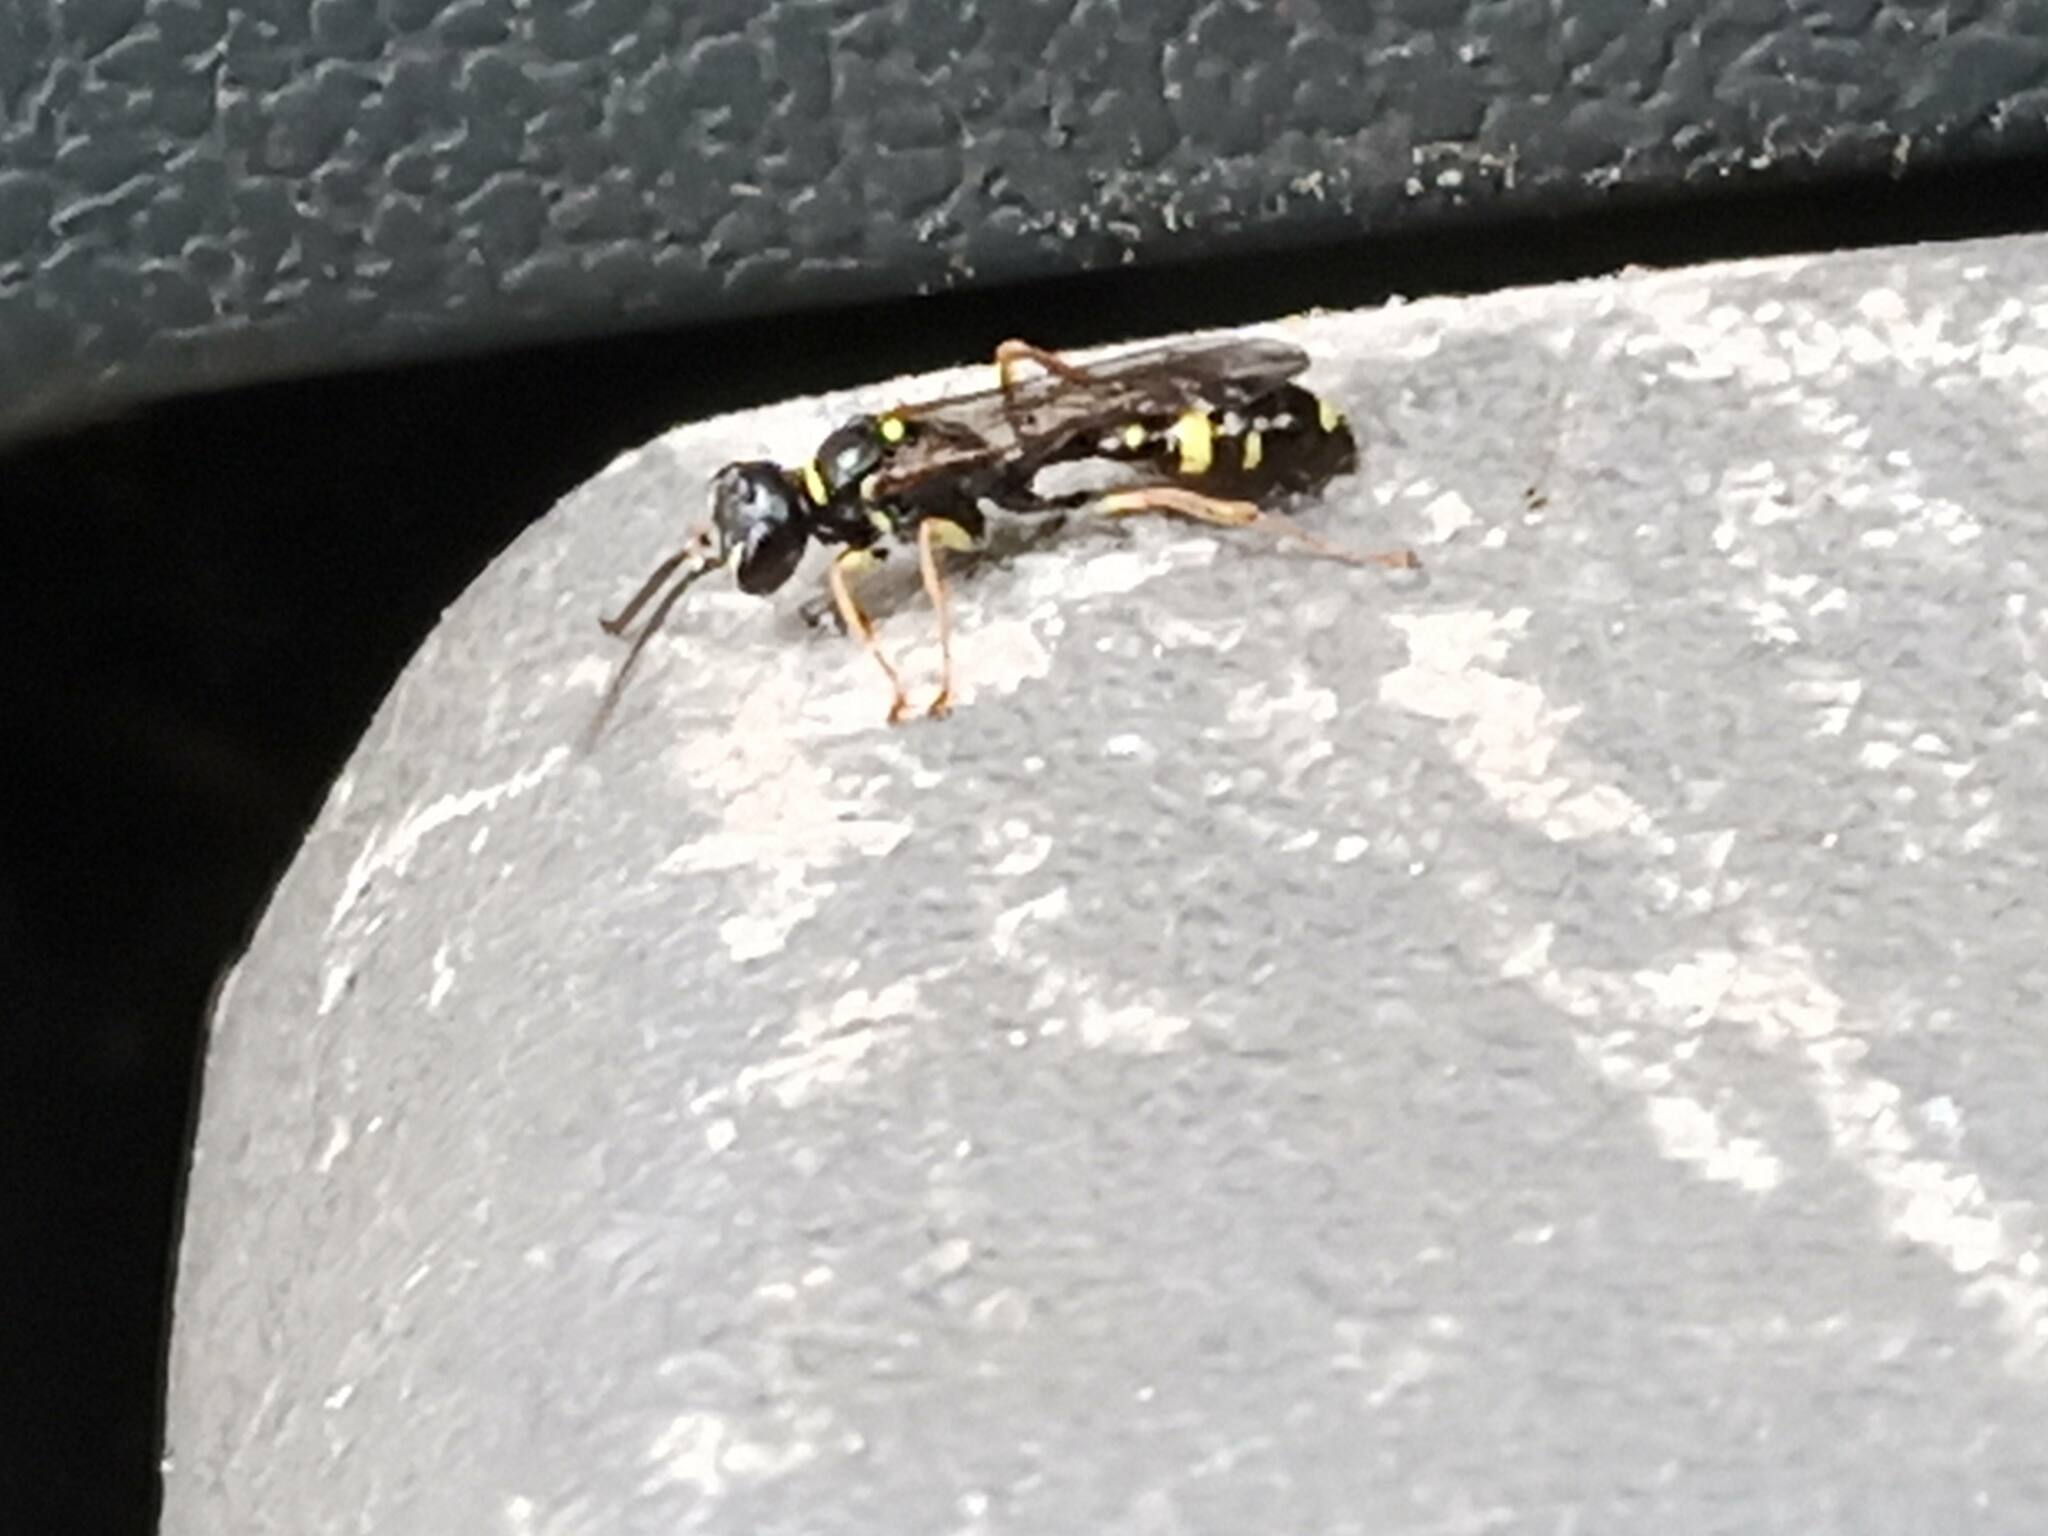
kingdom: Animalia
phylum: Arthropoda
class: Insecta
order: Hymenoptera
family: Crabronidae
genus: Mellinus
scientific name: Mellinus arvensis
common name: Field digger wasp
